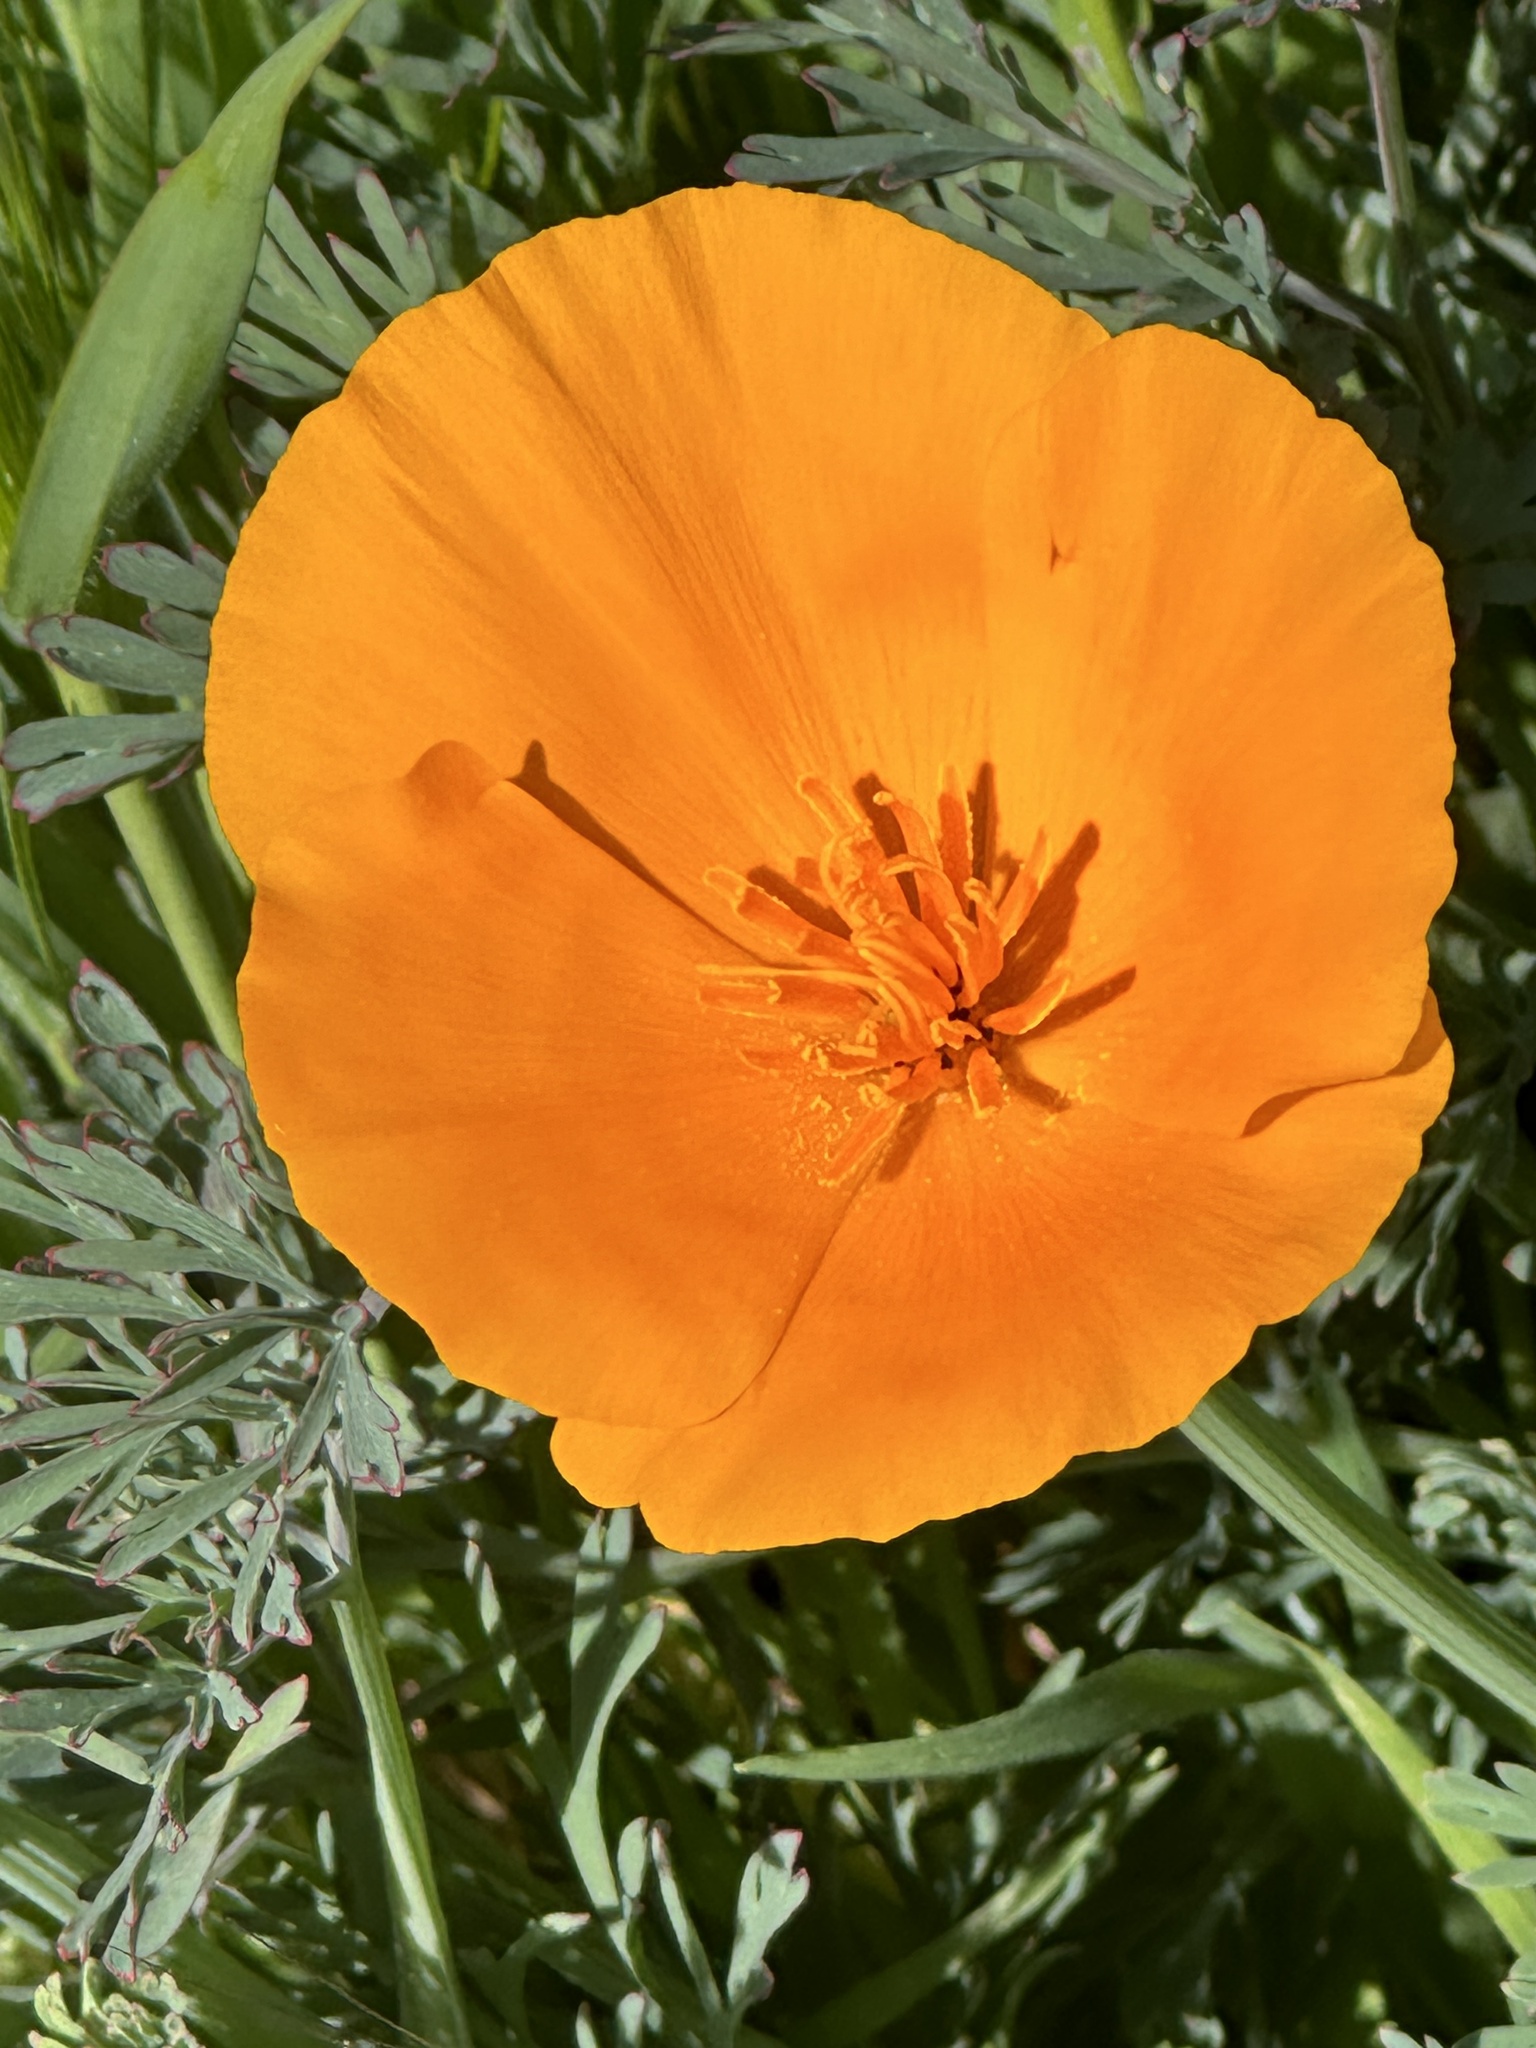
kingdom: Plantae
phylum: Tracheophyta
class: Magnoliopsida
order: Ranunculales
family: Papaveraceae
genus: Eschscholzia
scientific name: Eschscholzia californica
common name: California poppy
